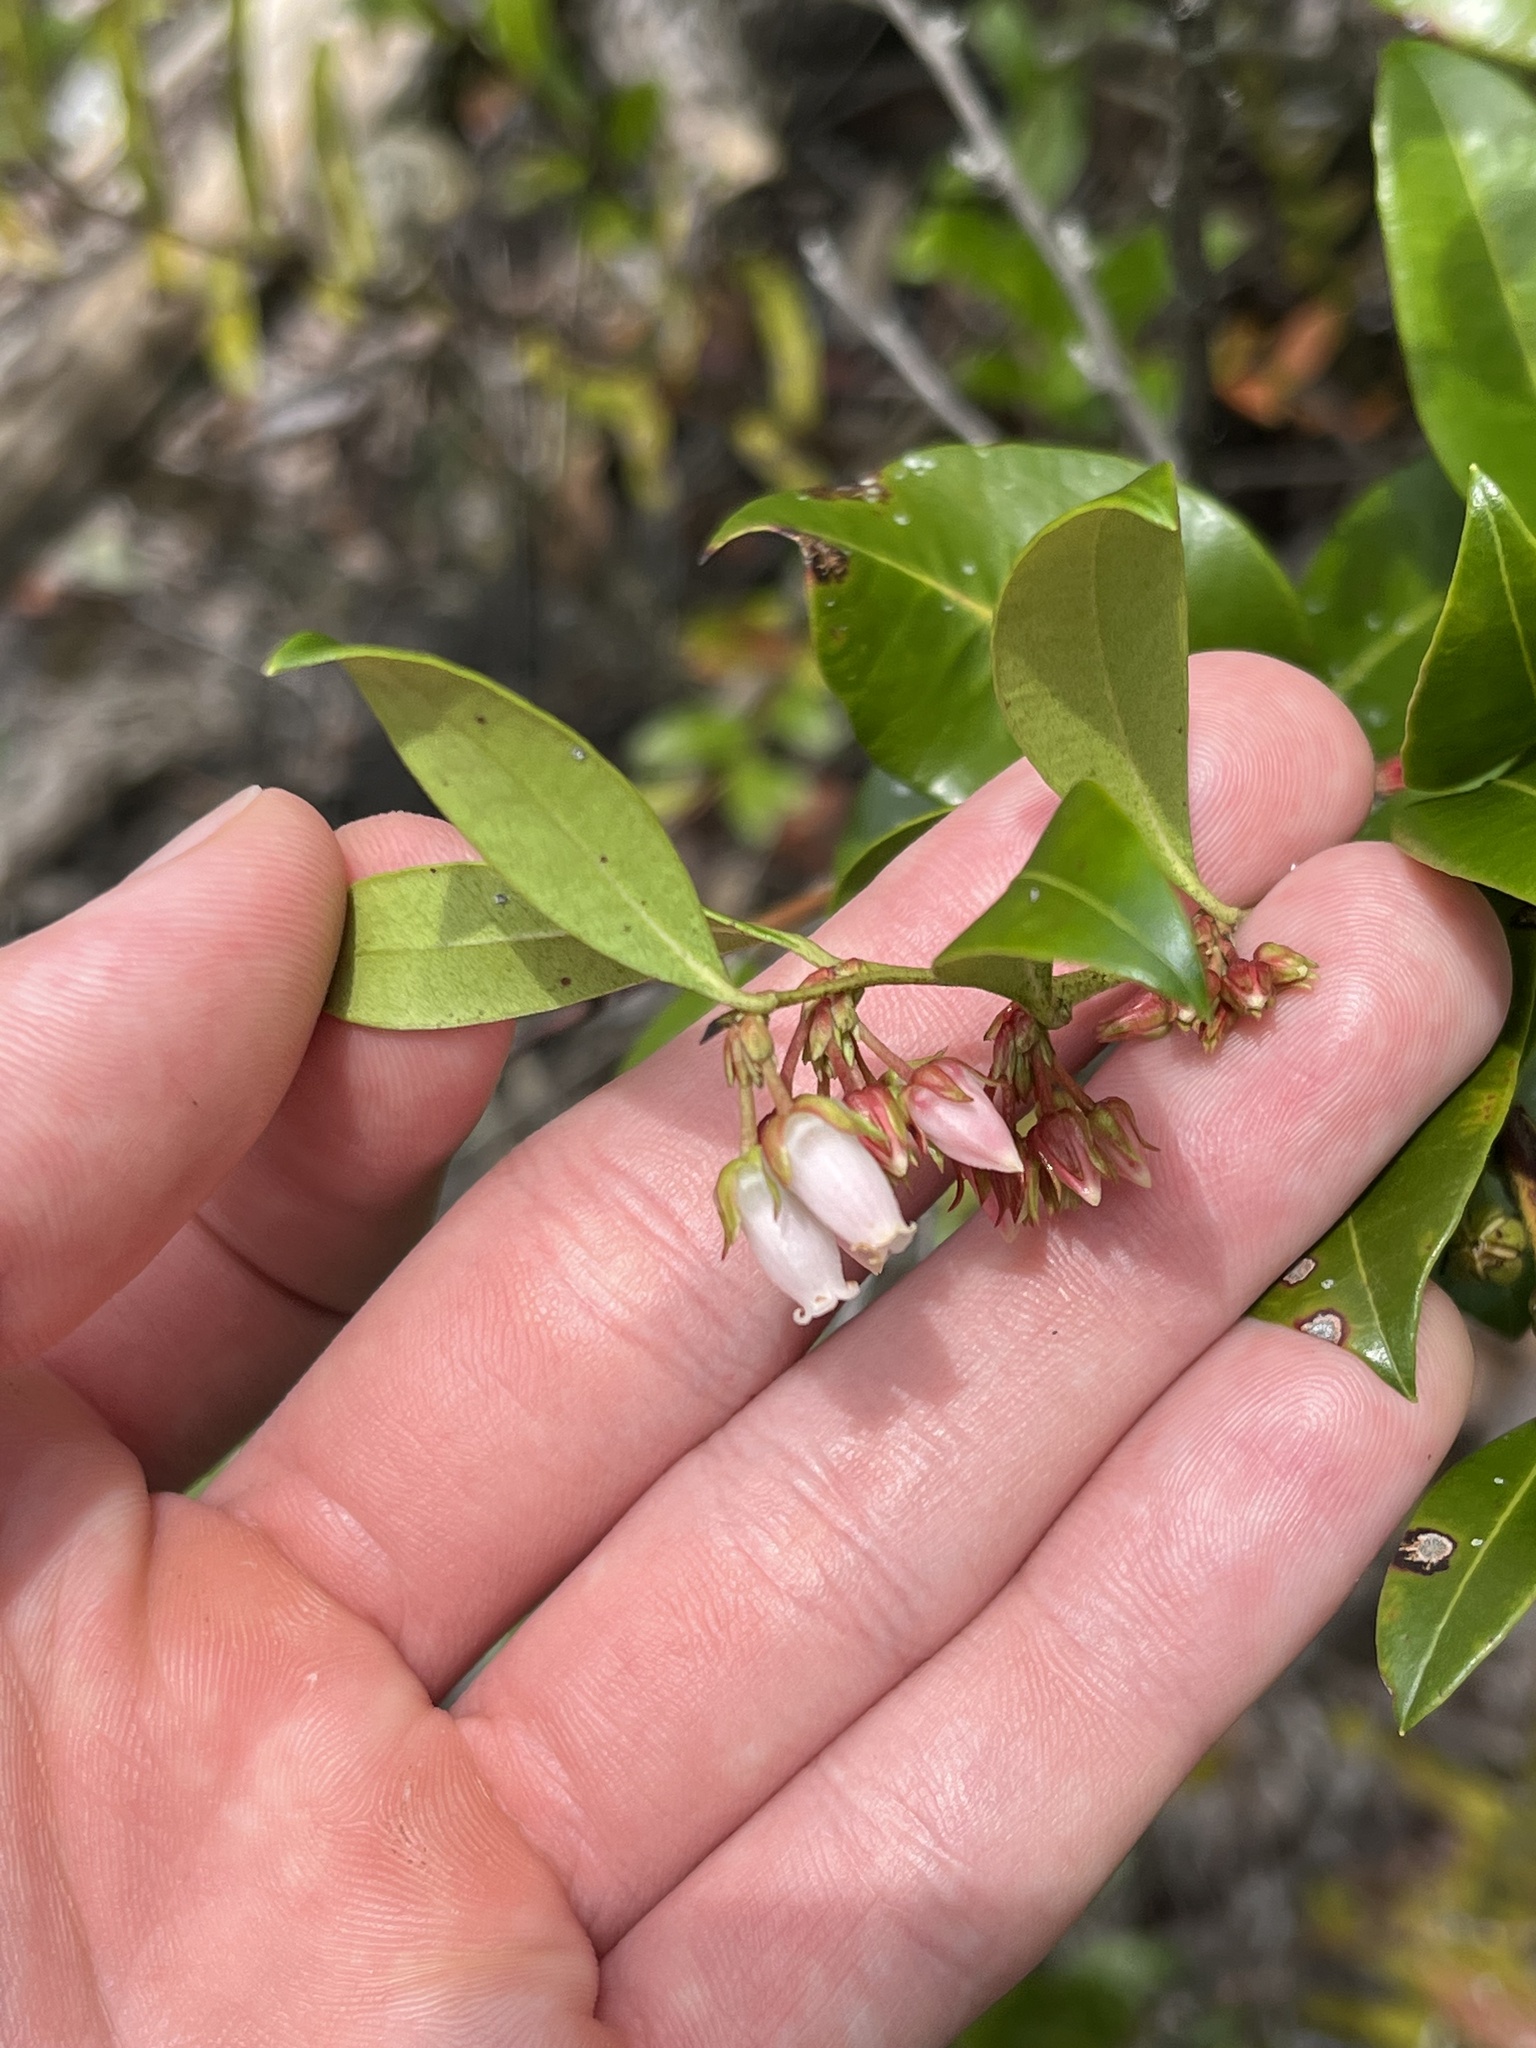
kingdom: Plantae
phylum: Tracheophyta
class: Magnoliopsida
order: Ericales
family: Ericaceae
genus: Lyonia
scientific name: Lyonia lucida
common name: Fetterbush
